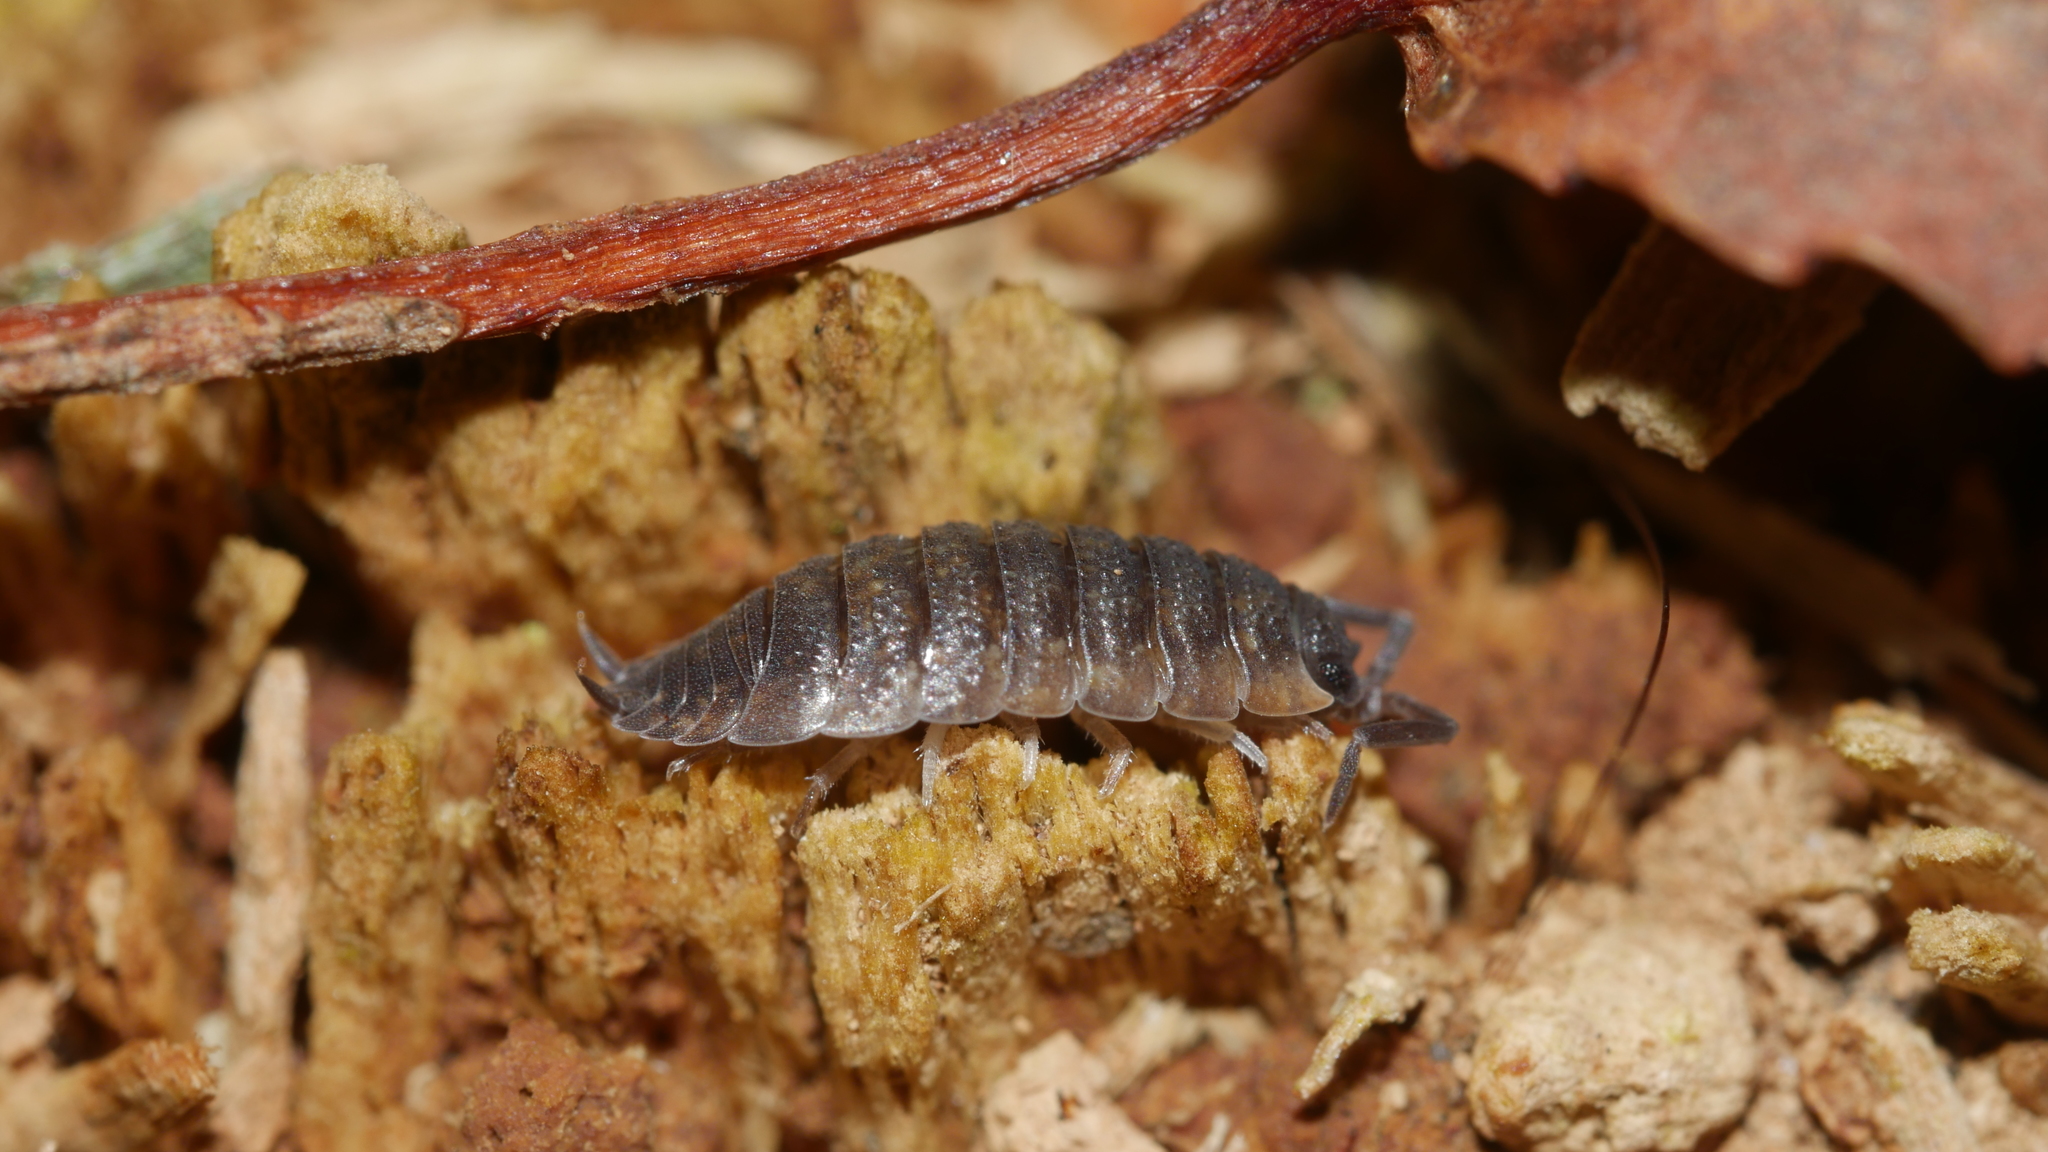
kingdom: Animalia
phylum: Arthropoda
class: Malacostraca
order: Isopoda
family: Porcellionidae
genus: Porcellio
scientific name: Porcellio scaber
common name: Common rough woodlouse
